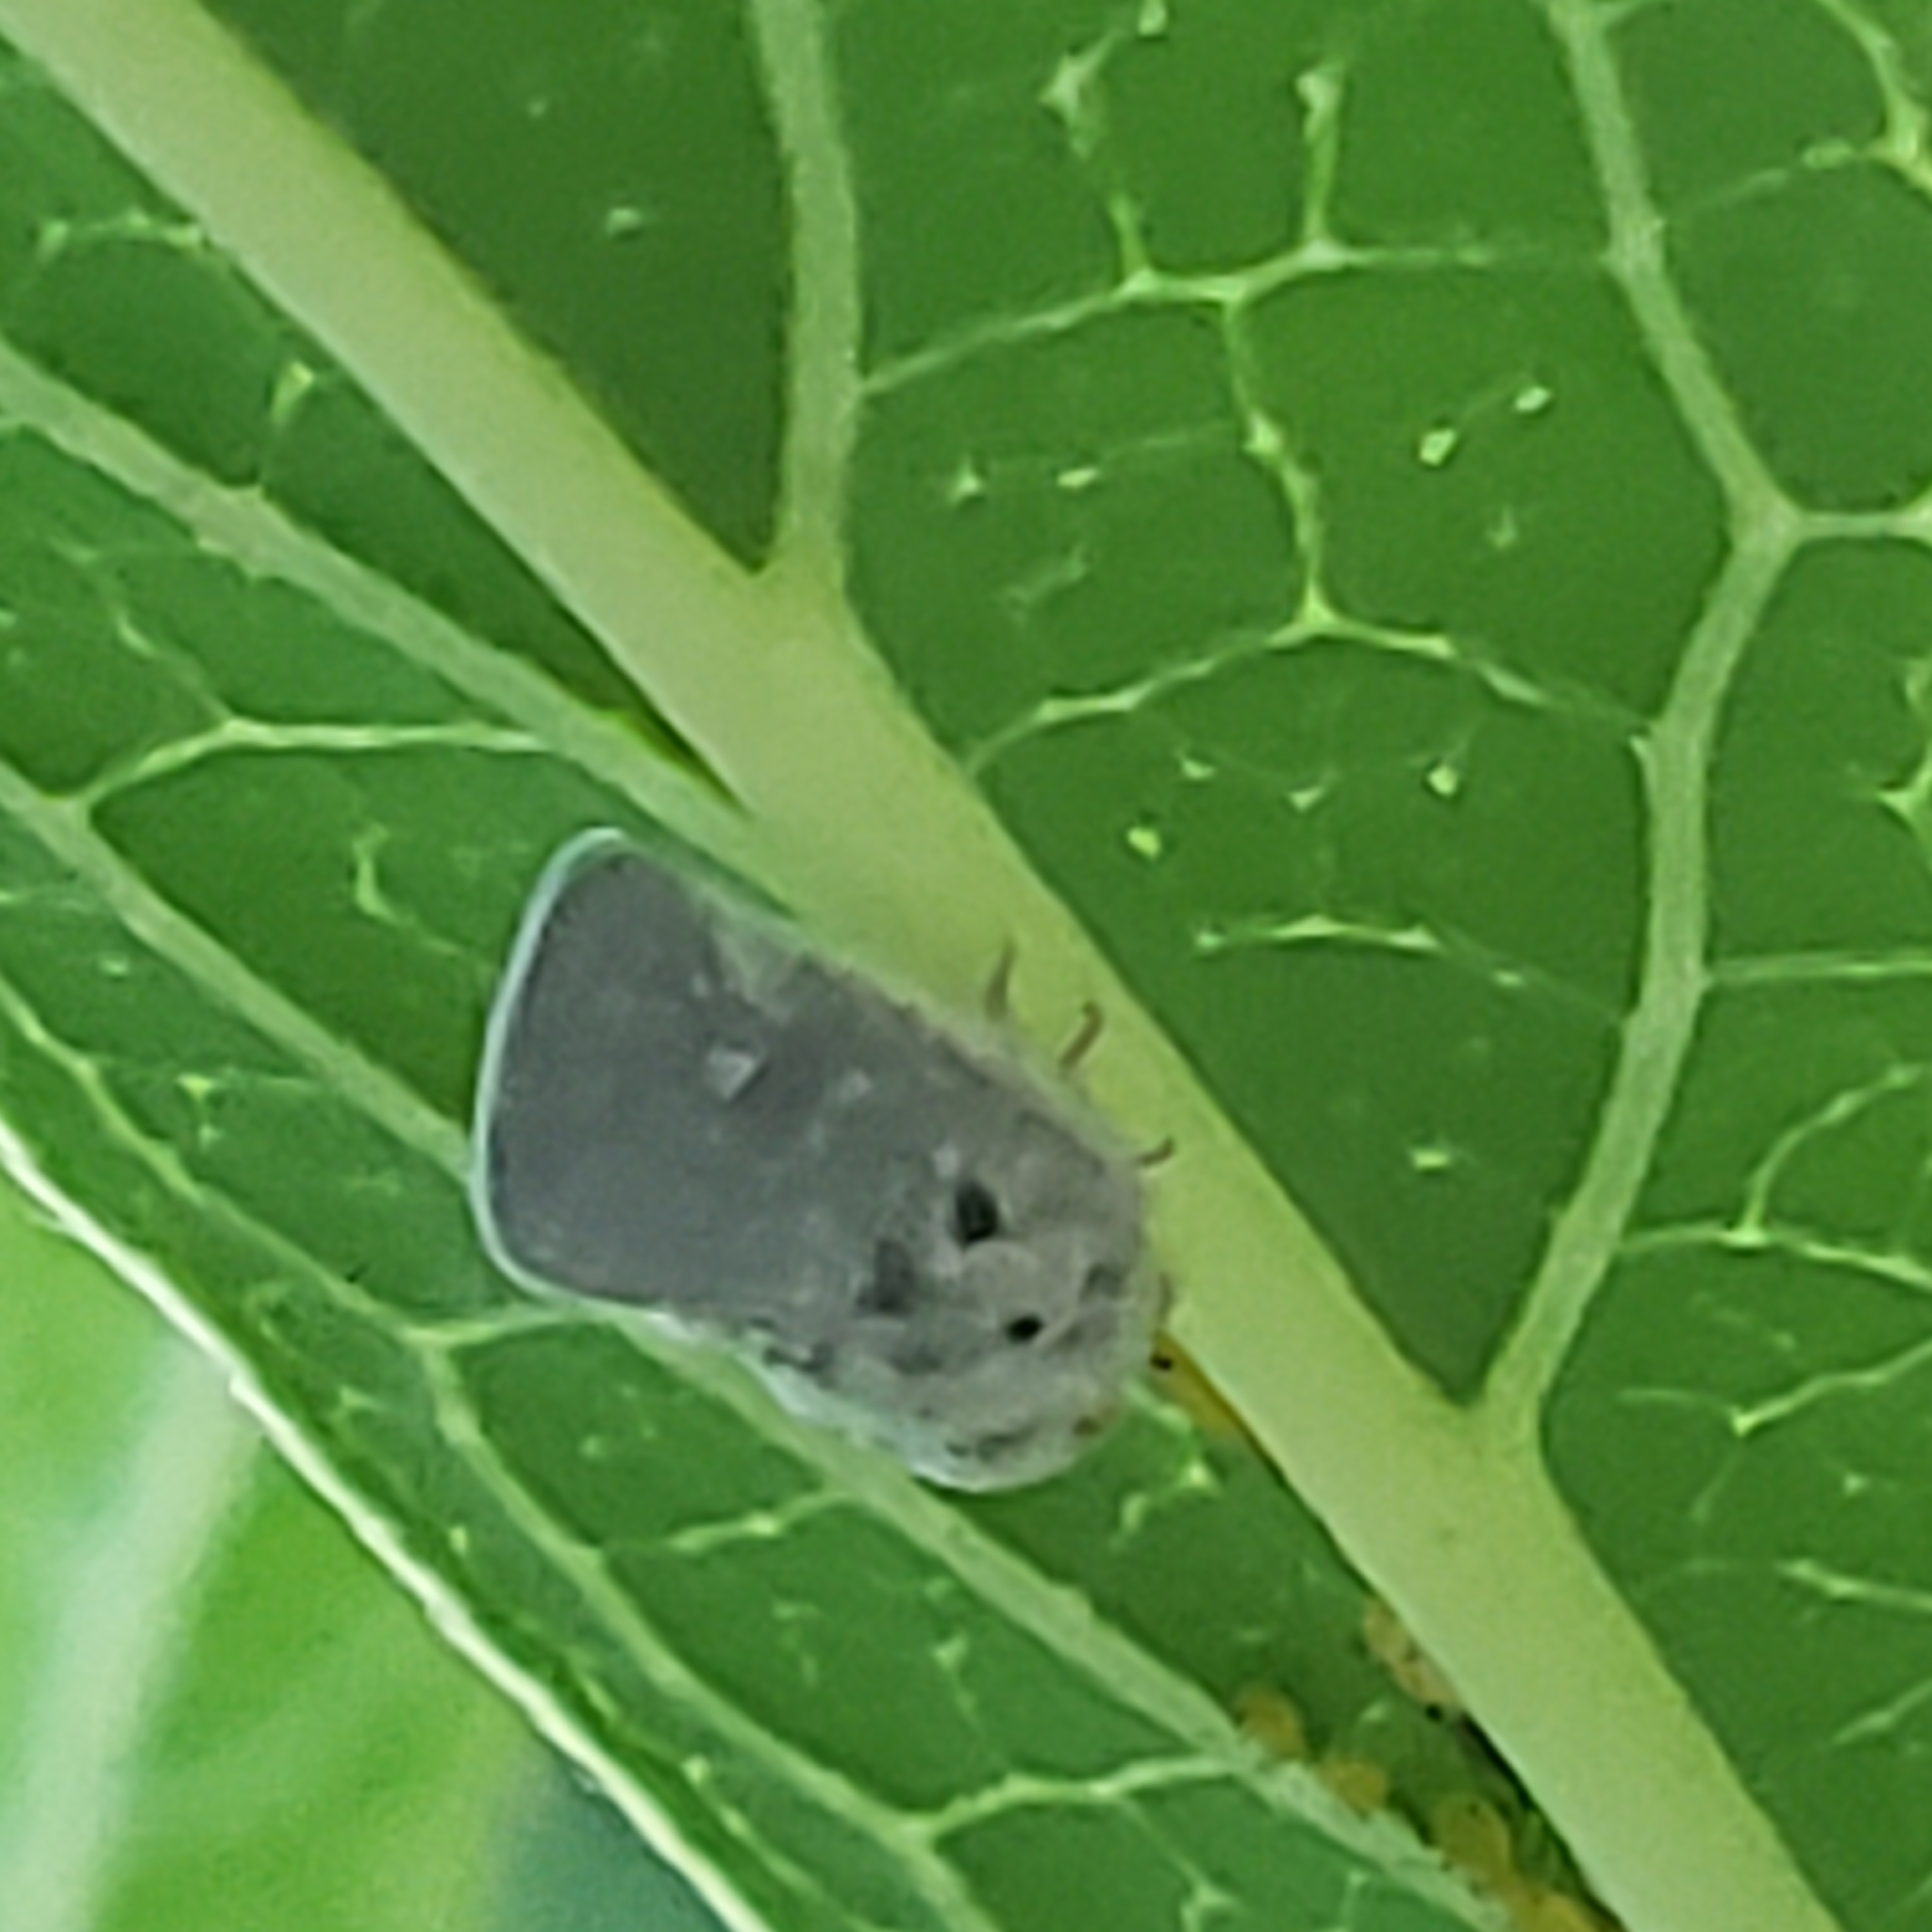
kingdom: Animalia
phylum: Arthropoda
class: Insecta
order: Hemiptera
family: Flatidae
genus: Metcalfa
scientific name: Metcalfa pruinosa
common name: Citrus flatid planthopper
